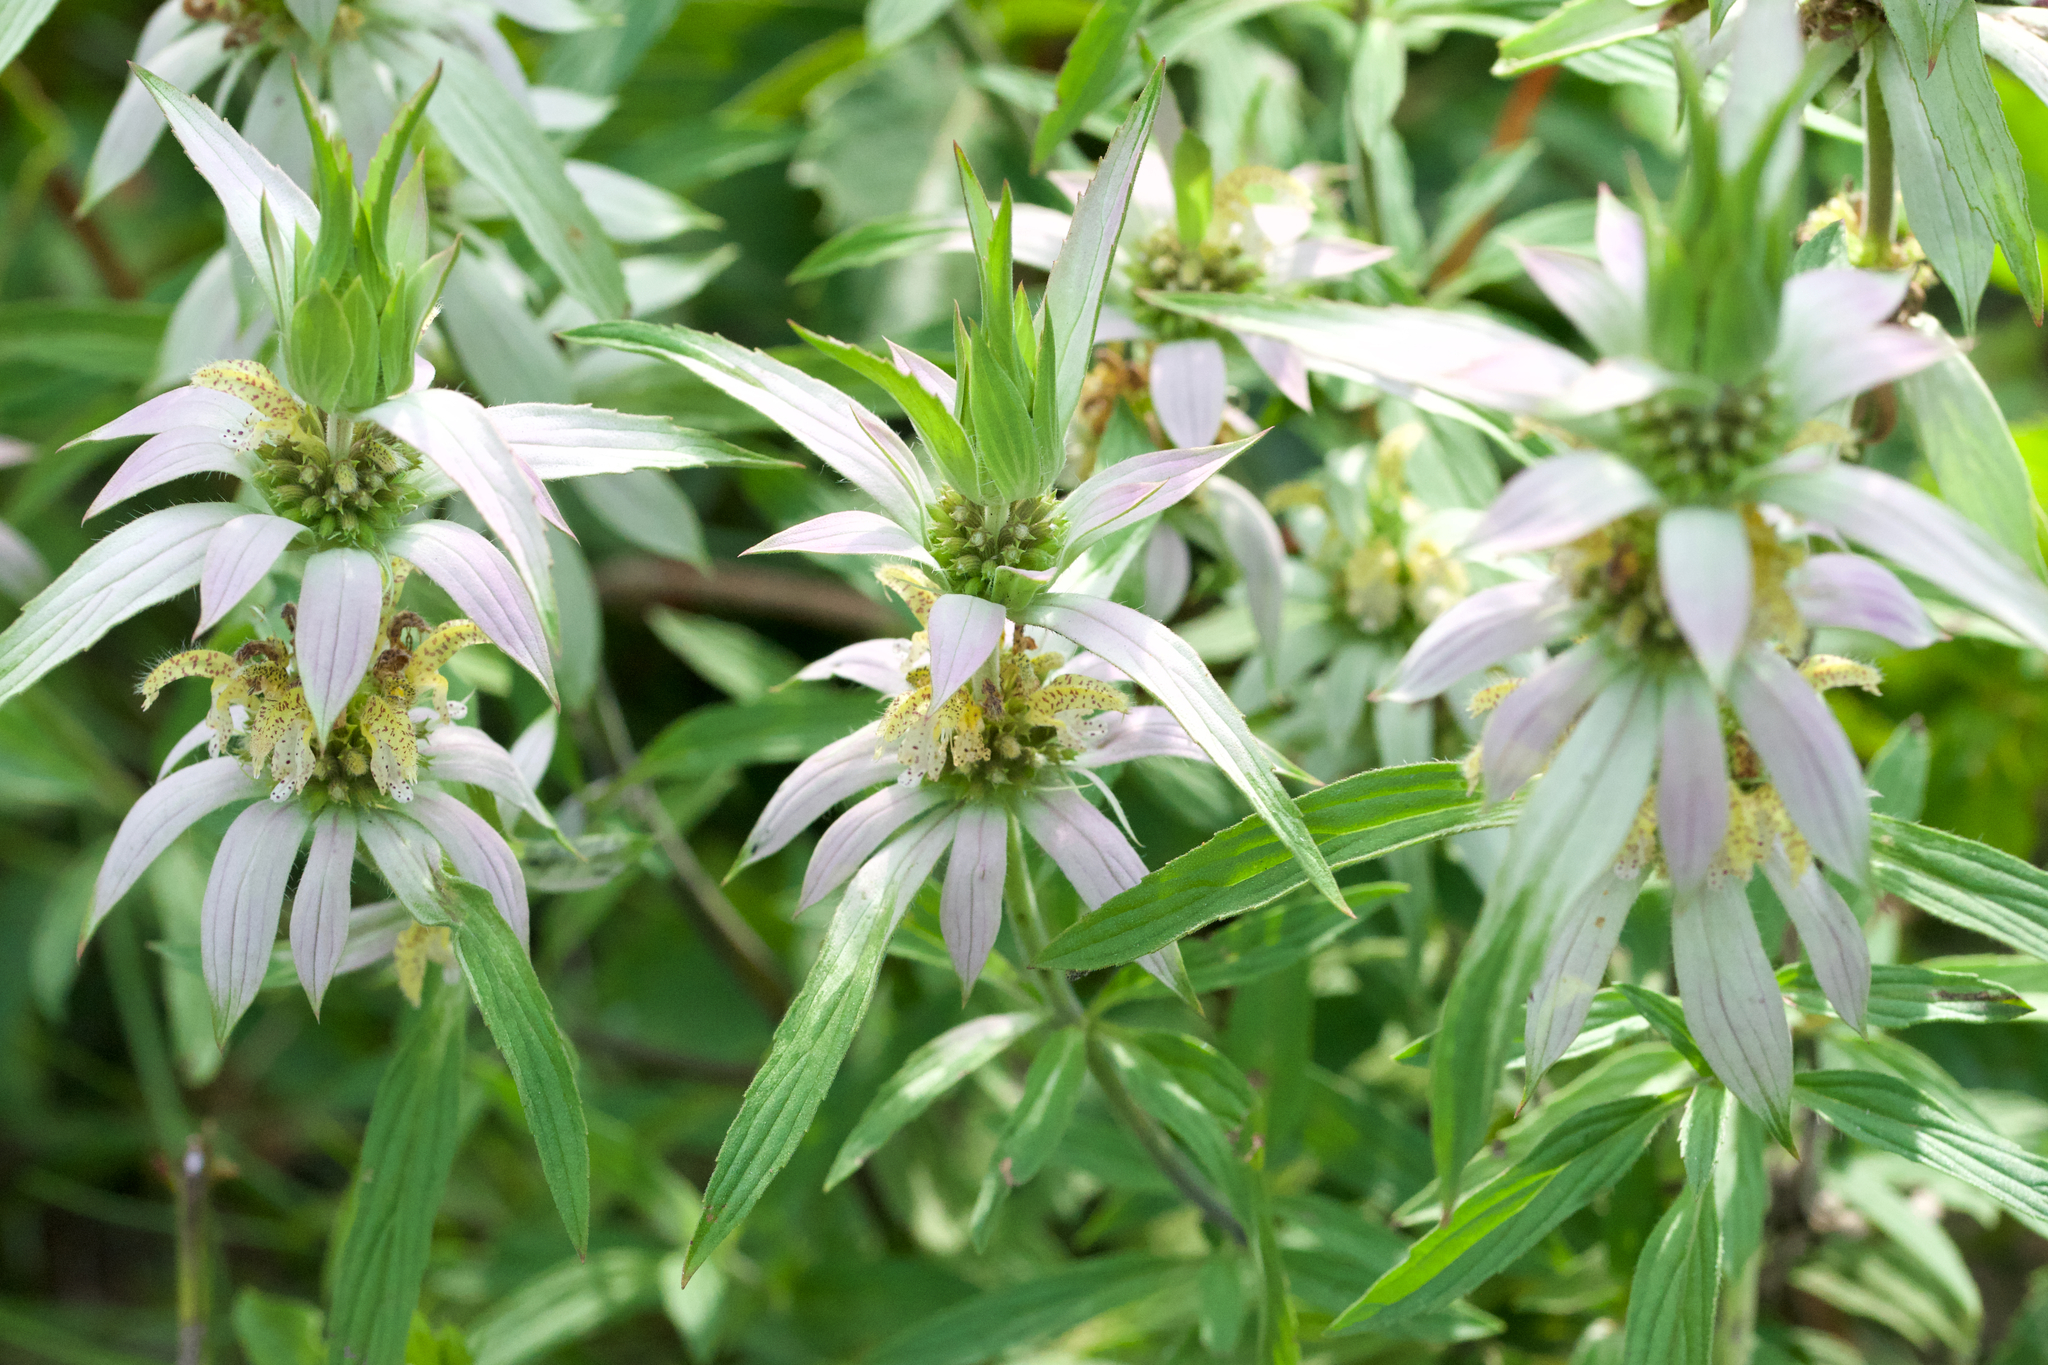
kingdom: Plantae
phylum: Tracheophyta
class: Magnoliopsida
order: Lamiales
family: Lamiaceae
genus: Monarda
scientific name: Monarda punctata
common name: Dotted monarda
